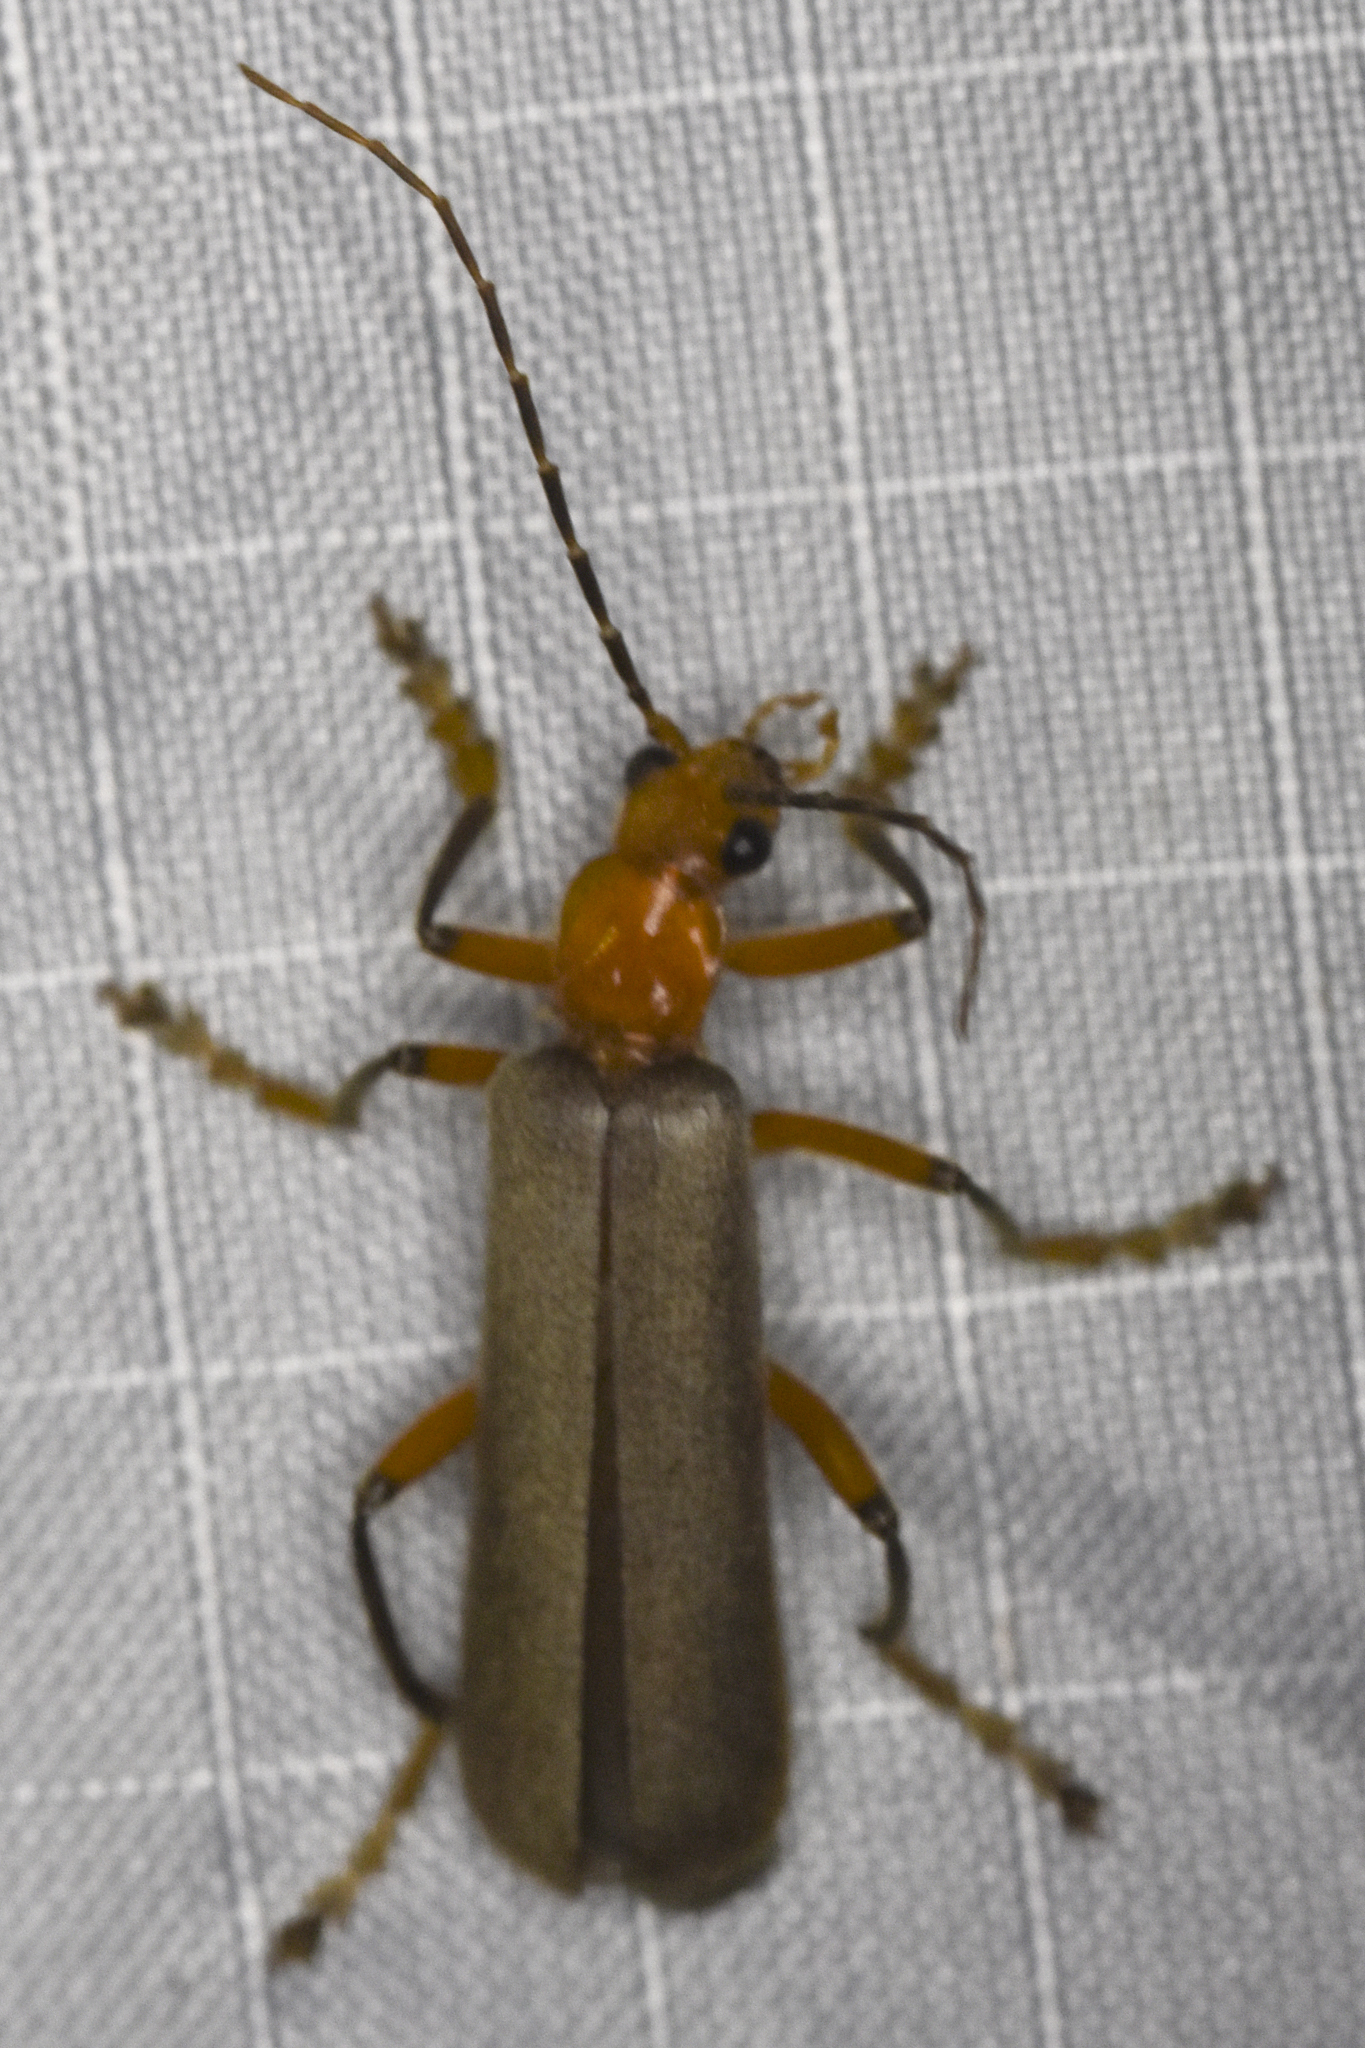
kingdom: Animalia
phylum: Arthropoda
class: Insecta
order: Coleoptera
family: Cantharidae
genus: Pacificanthia
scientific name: Pacificanthia consors
